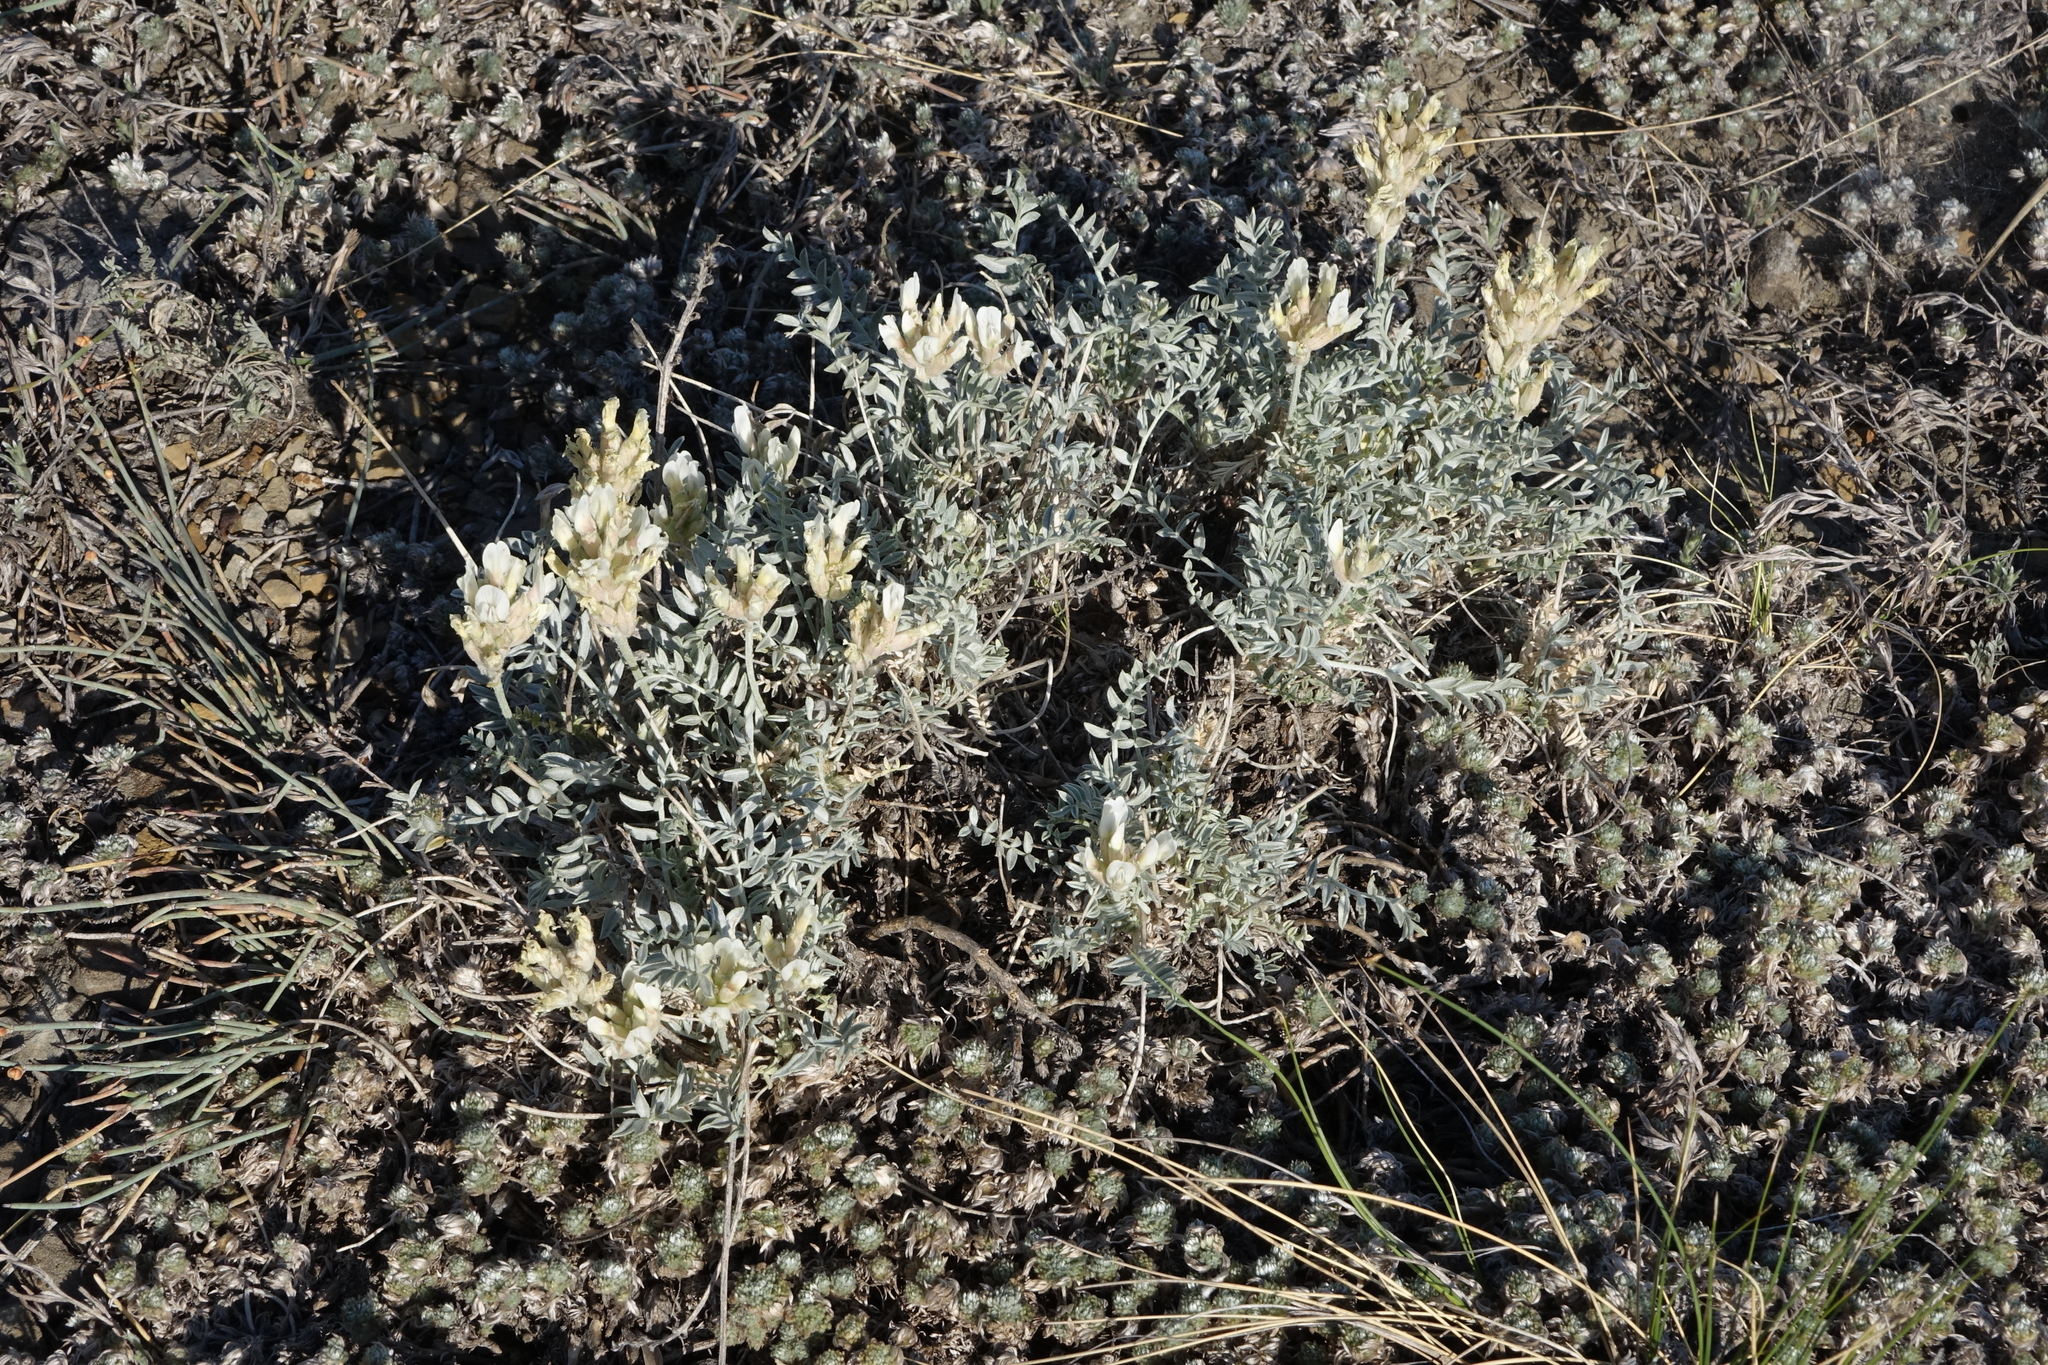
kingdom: Plantae
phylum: Tracheophyta
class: Magnoliopsida
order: Fabales
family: Fabaceae
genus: Astragalus
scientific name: Astragalus dilutus
